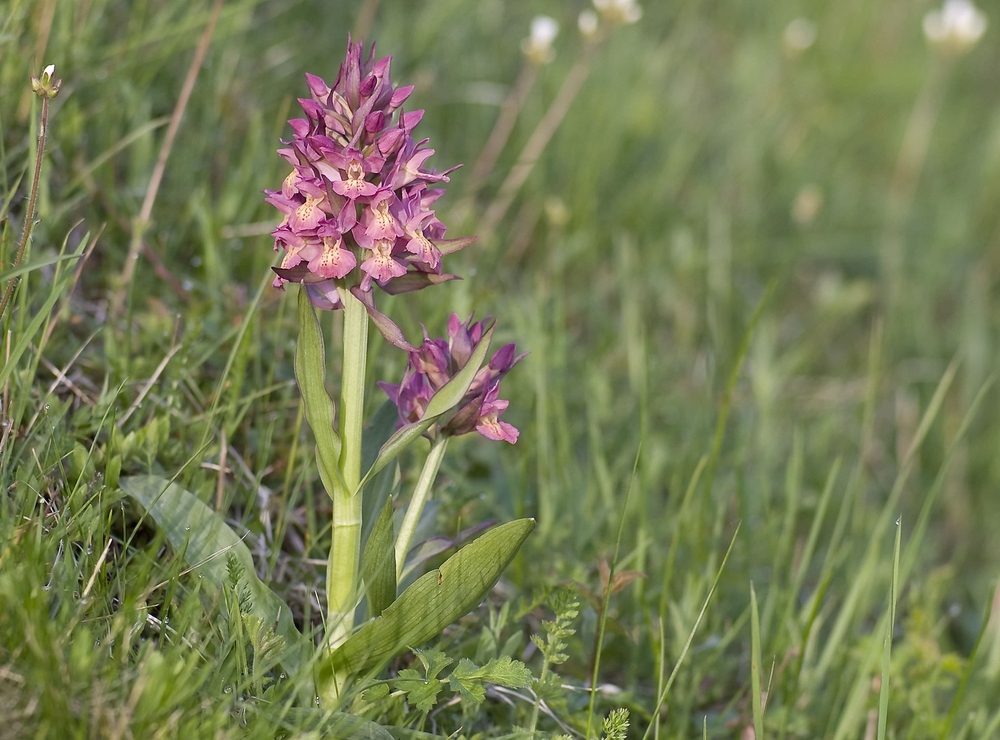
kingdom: Plantae
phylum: Tracheophyta
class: Liliopsida
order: Asparagales
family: Orchidaceae
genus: Dactylorhiza
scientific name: Dactylorhiza sambucina
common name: Elder-flowered orchid
